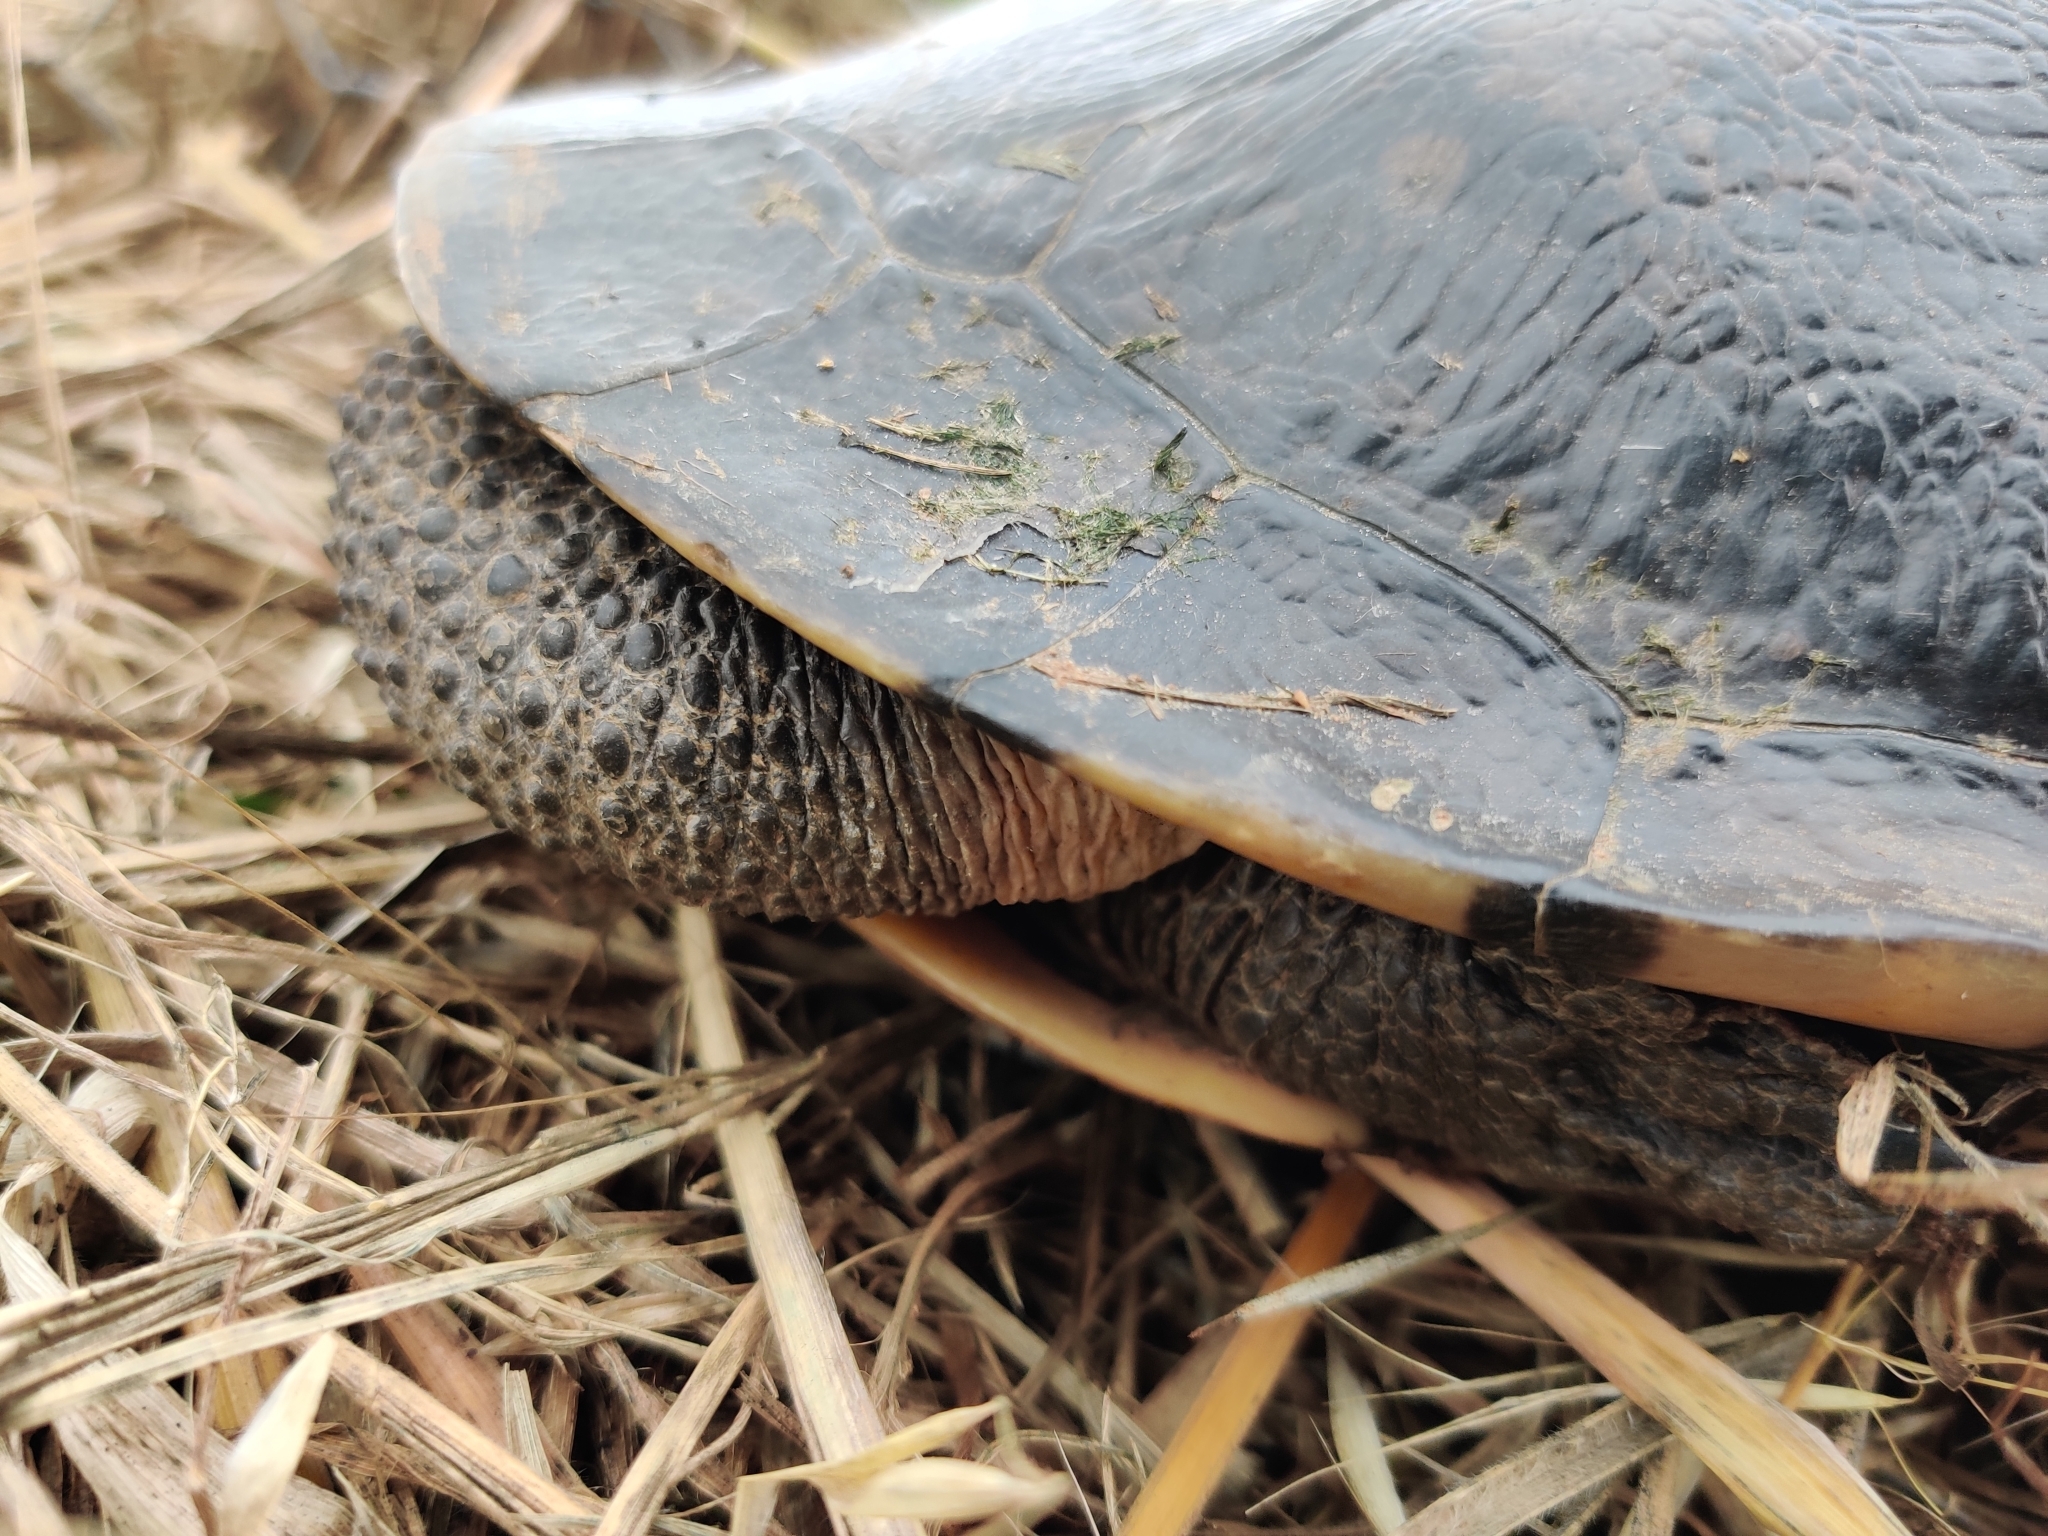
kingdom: Animalia
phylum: Chordata
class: Testudines
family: Chelidae
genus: Chelodina
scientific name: Chelodina longicollis
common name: Eastern snake-necked turtle
